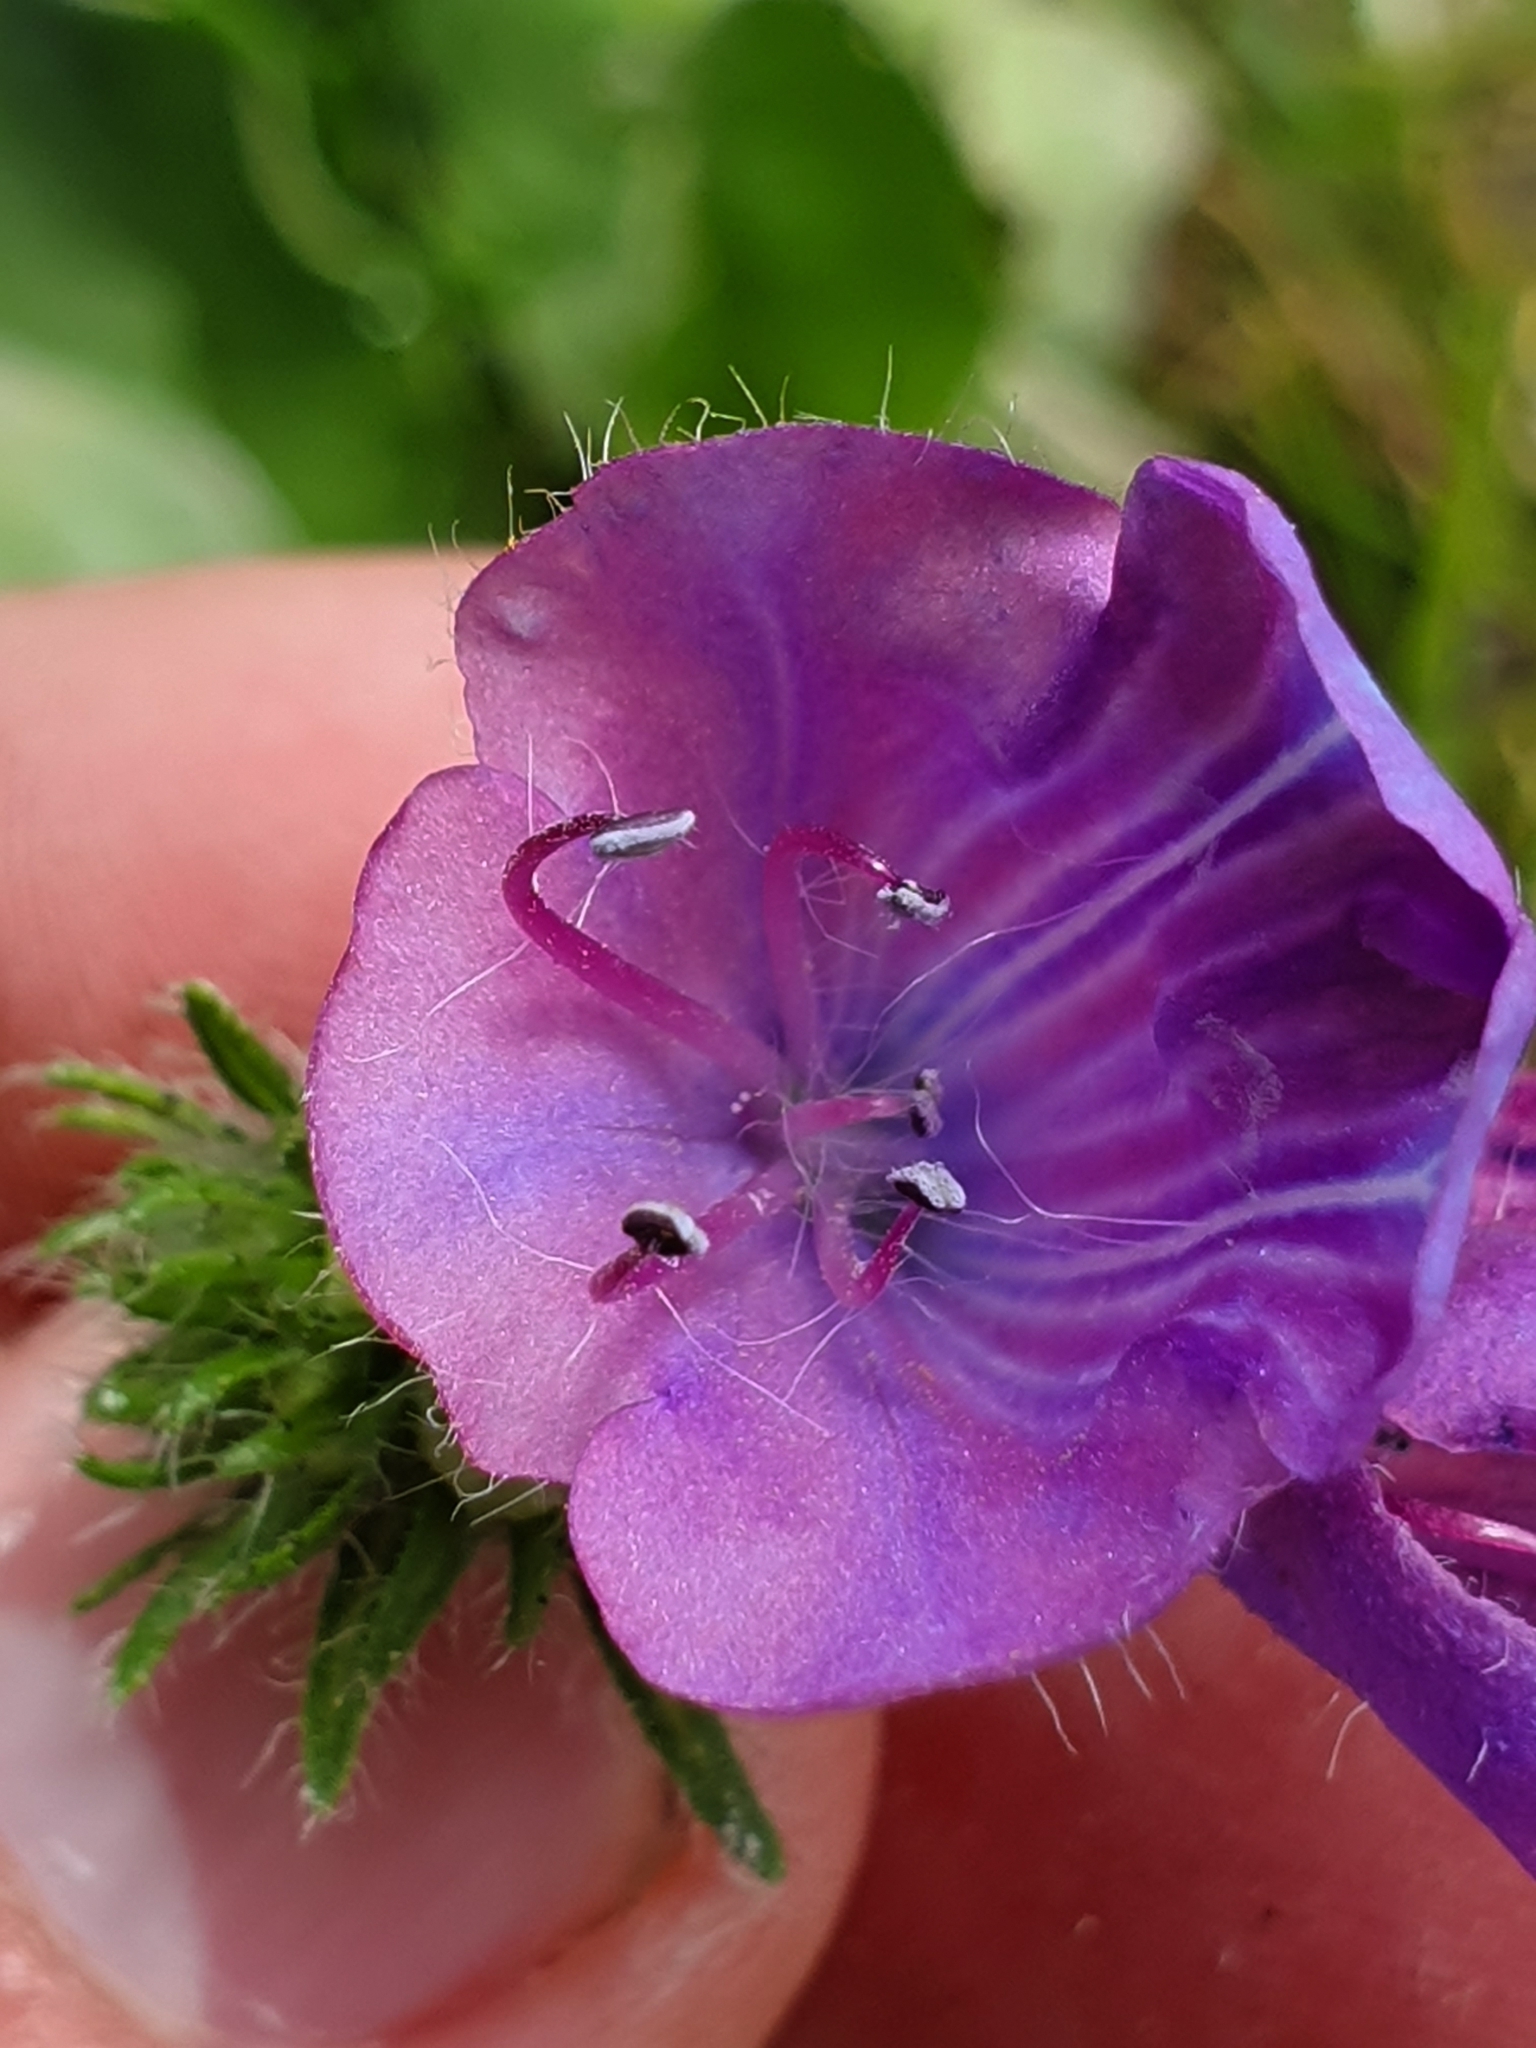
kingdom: Plantae
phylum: Tracheophyta
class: Magnoliopsida
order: Boraginales
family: Boraginaceae
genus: Echium
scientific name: Echium plantagineum
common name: Purple viper's-bugloss
